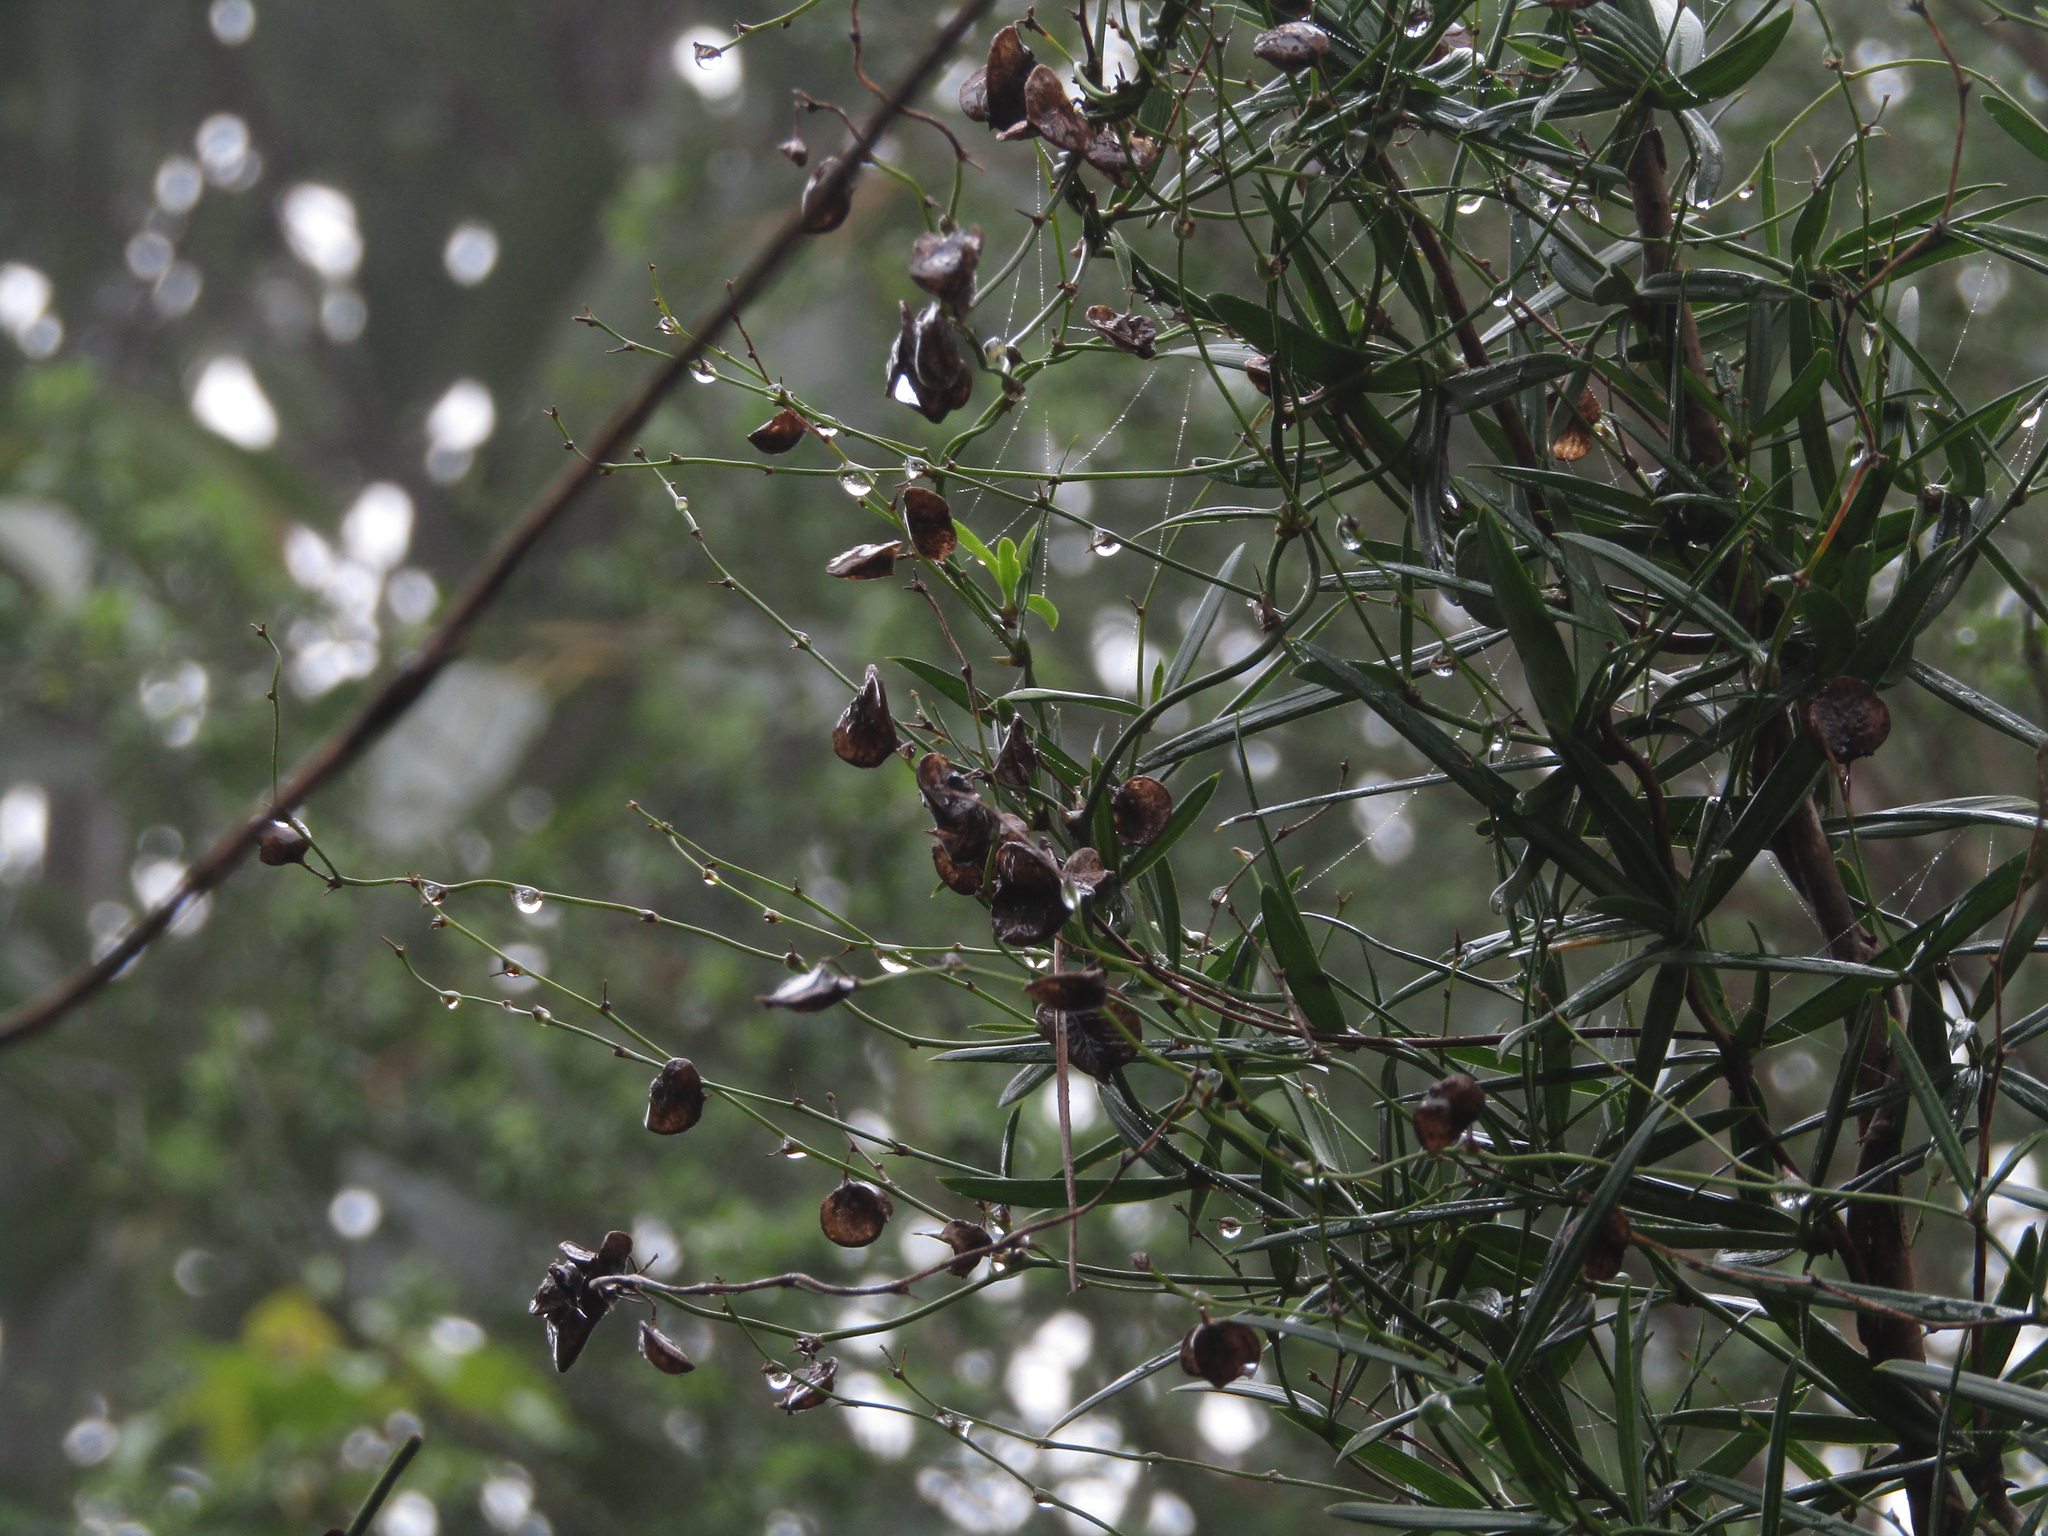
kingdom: Plantae
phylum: Tracheophyta
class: Liliopsida
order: Asparagales
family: Asparagaceae
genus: Herreria
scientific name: Herreria stellata
